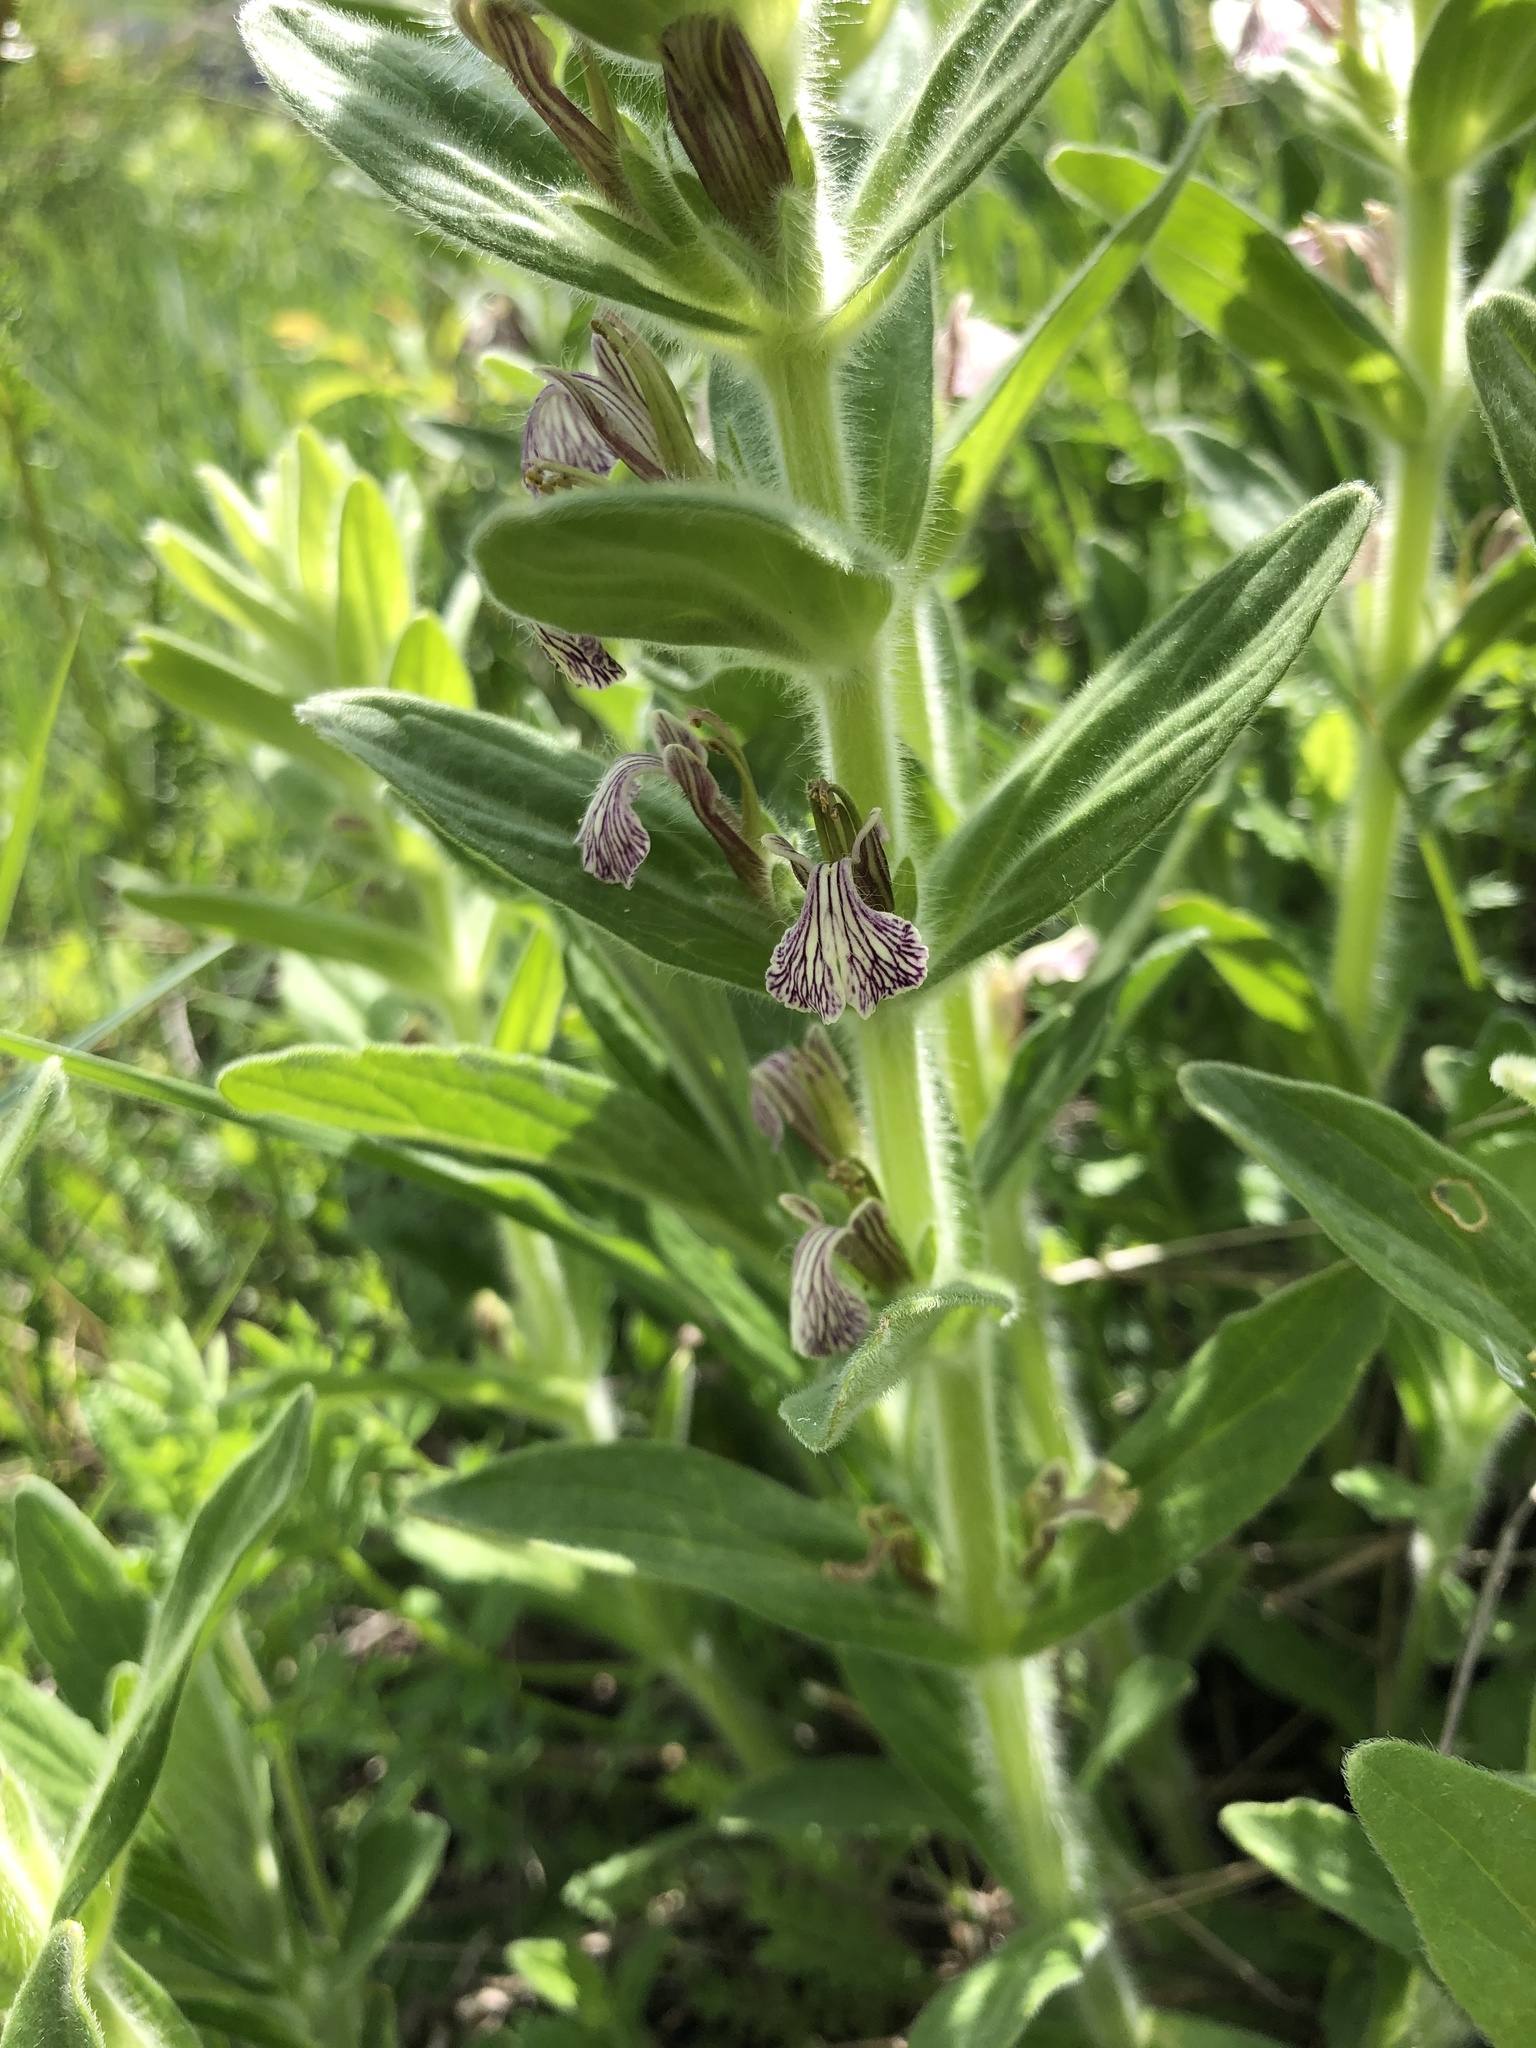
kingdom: Plantae
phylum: Tracheophyta
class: Magnoliopsida
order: Lamiales
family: Lamiaceae
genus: Ajuga
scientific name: Ajuga laxmannii
